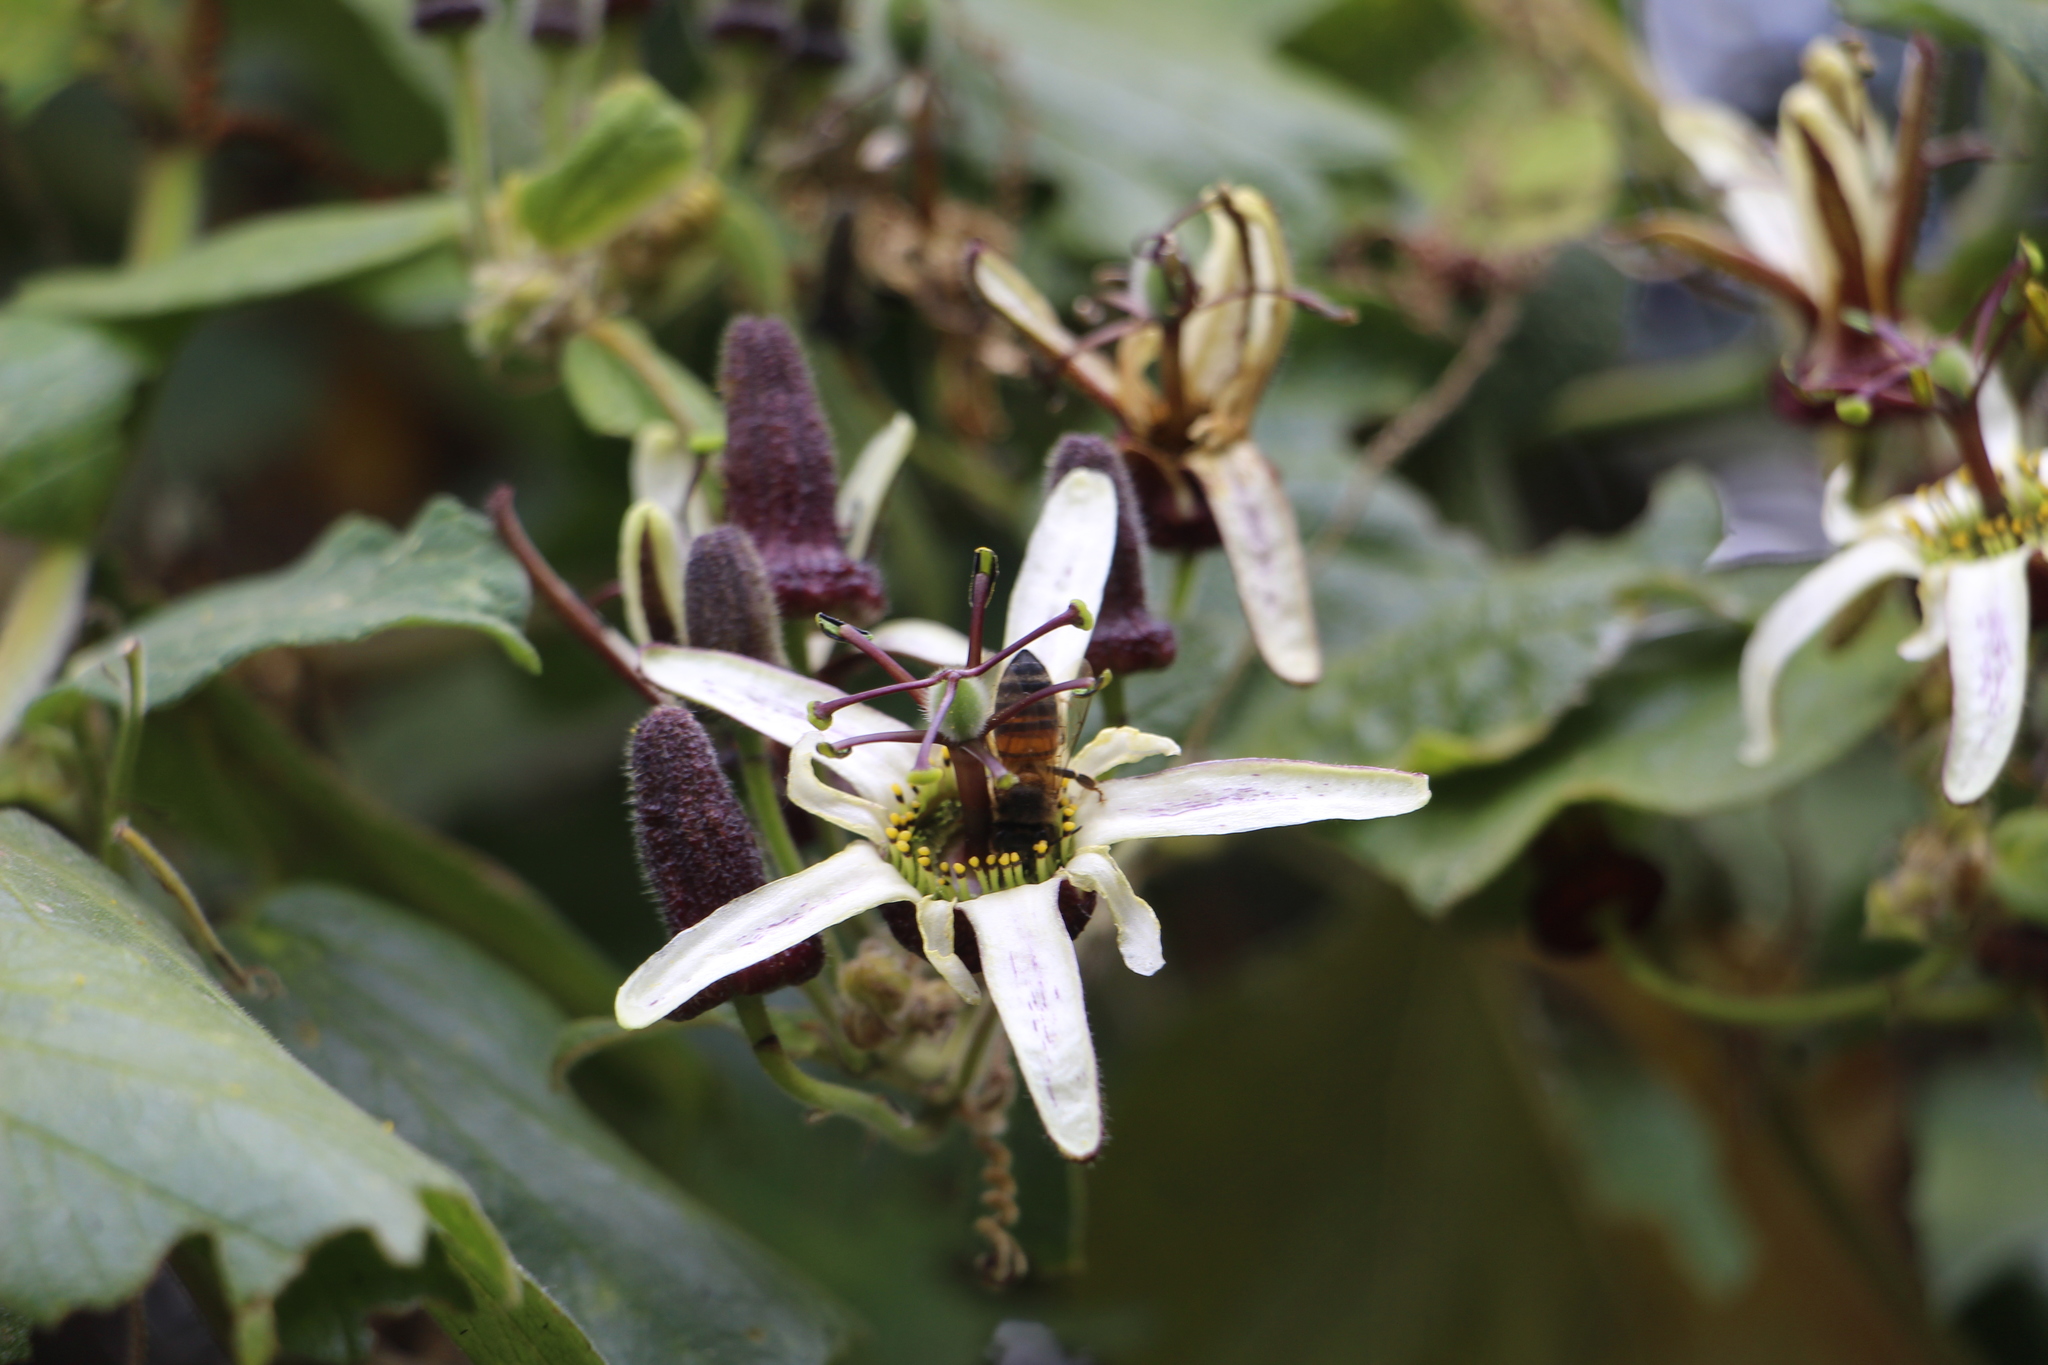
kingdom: Plantae
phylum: Tracheophyta
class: Magnoliopsida
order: Malpighiales
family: Passifloraceae
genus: Passiflora
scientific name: Passiflora bogotensis
